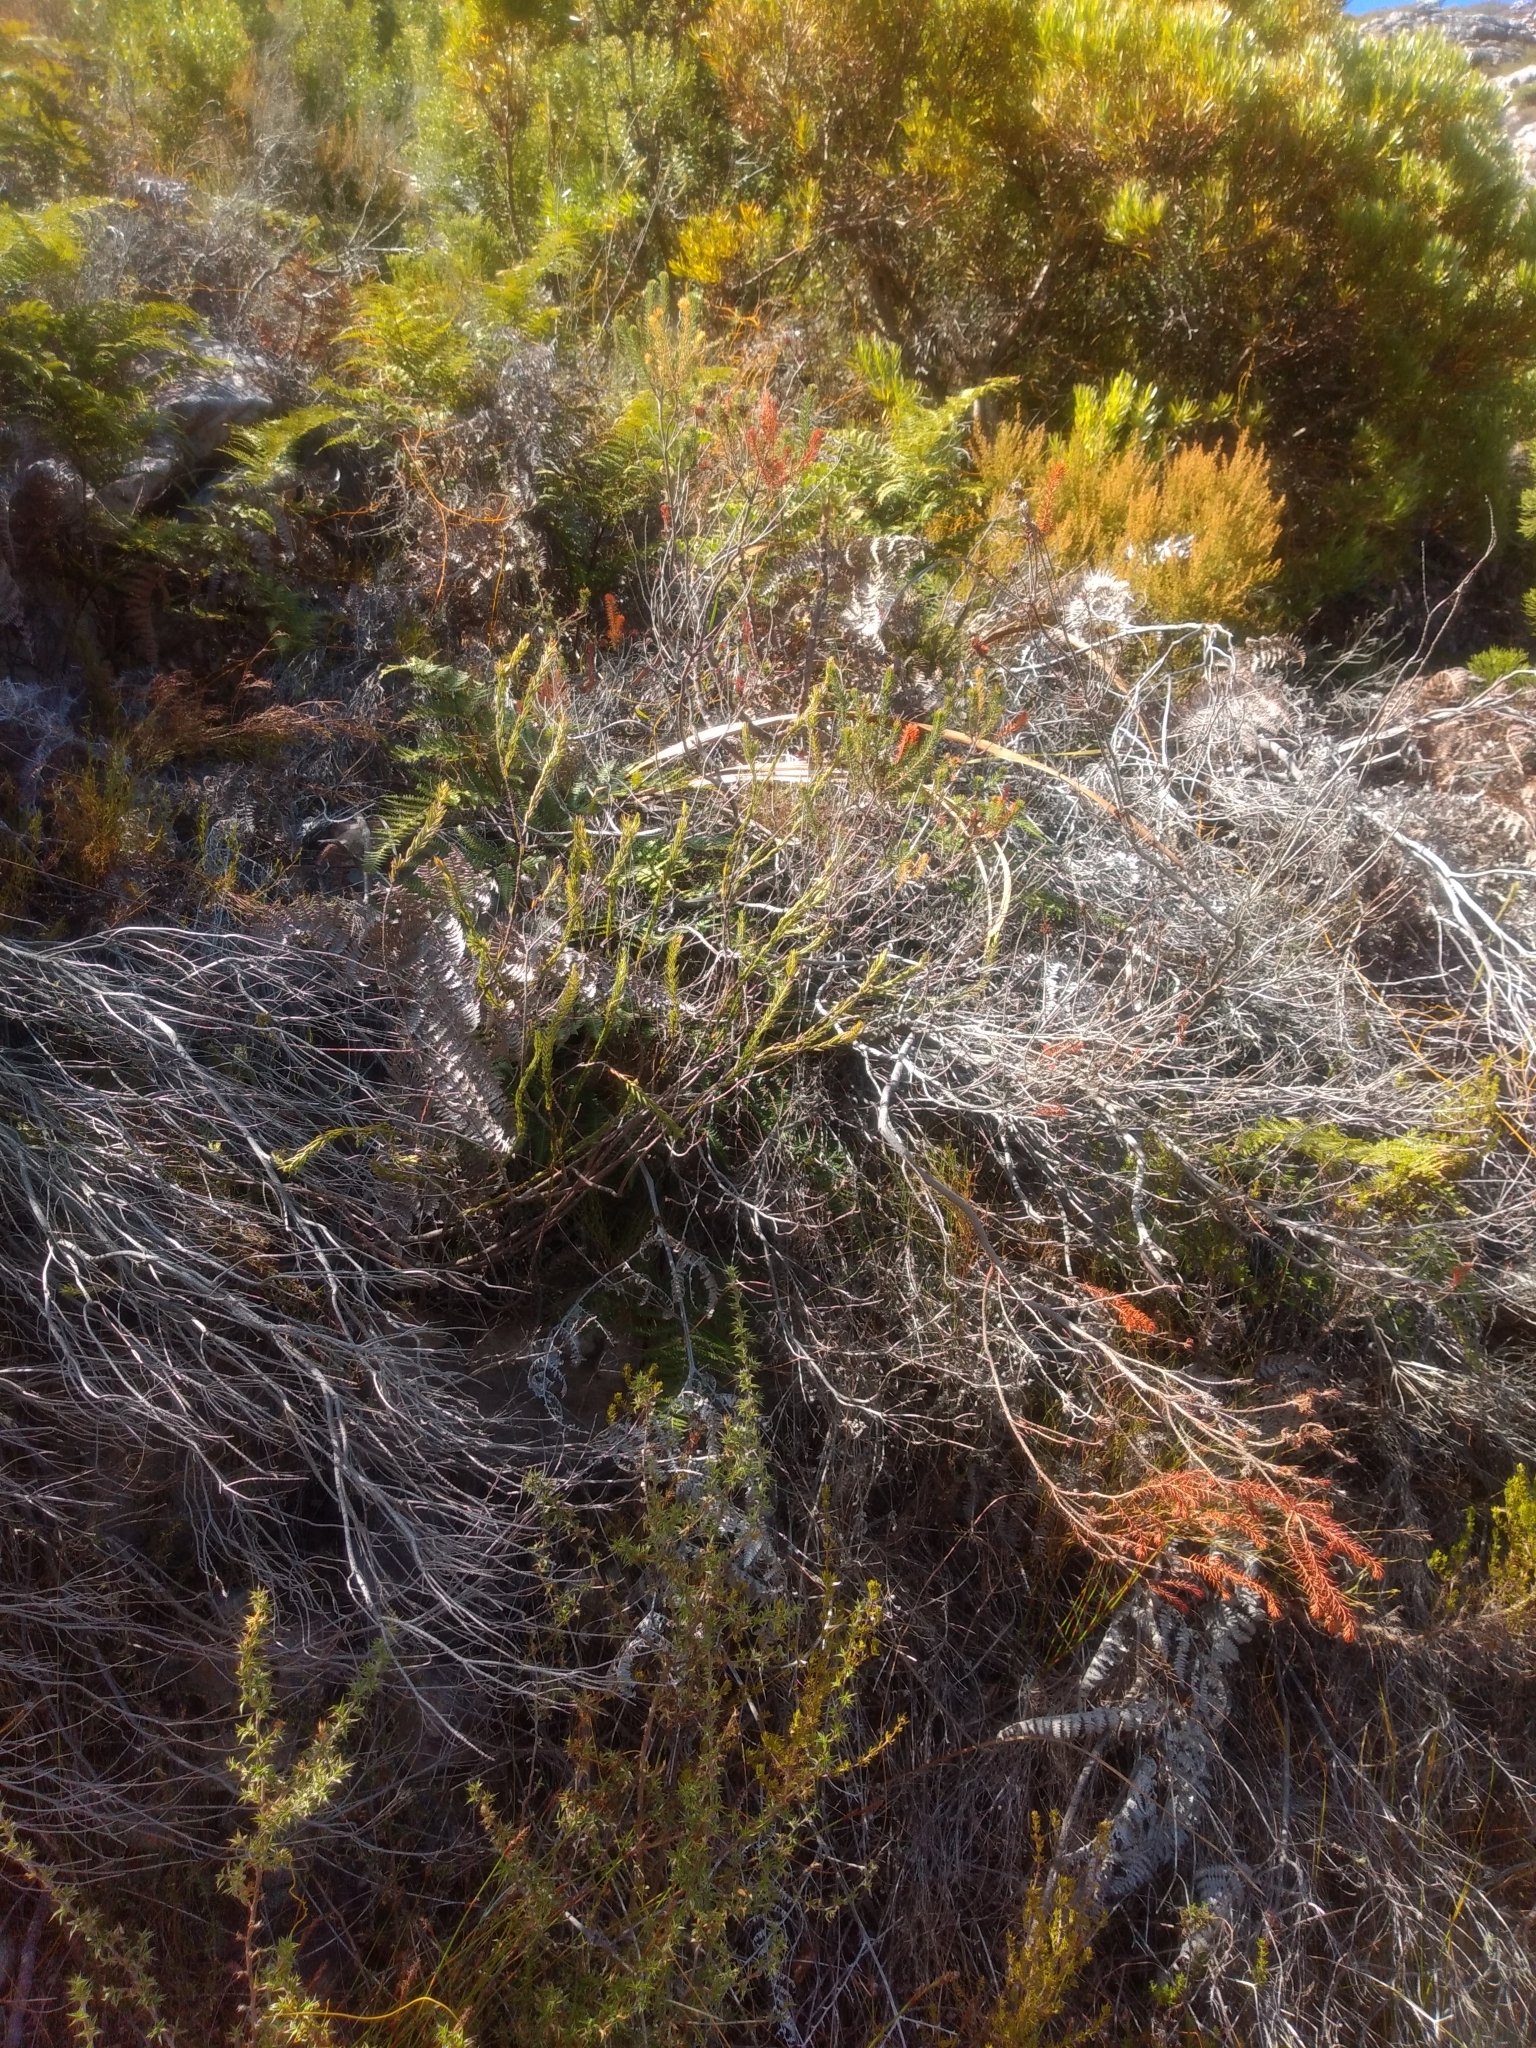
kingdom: Plantae
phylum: Tracheophyta
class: Magnoliopsida
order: Ericales
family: Ericaceae
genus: Erica
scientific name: Erica abietina
